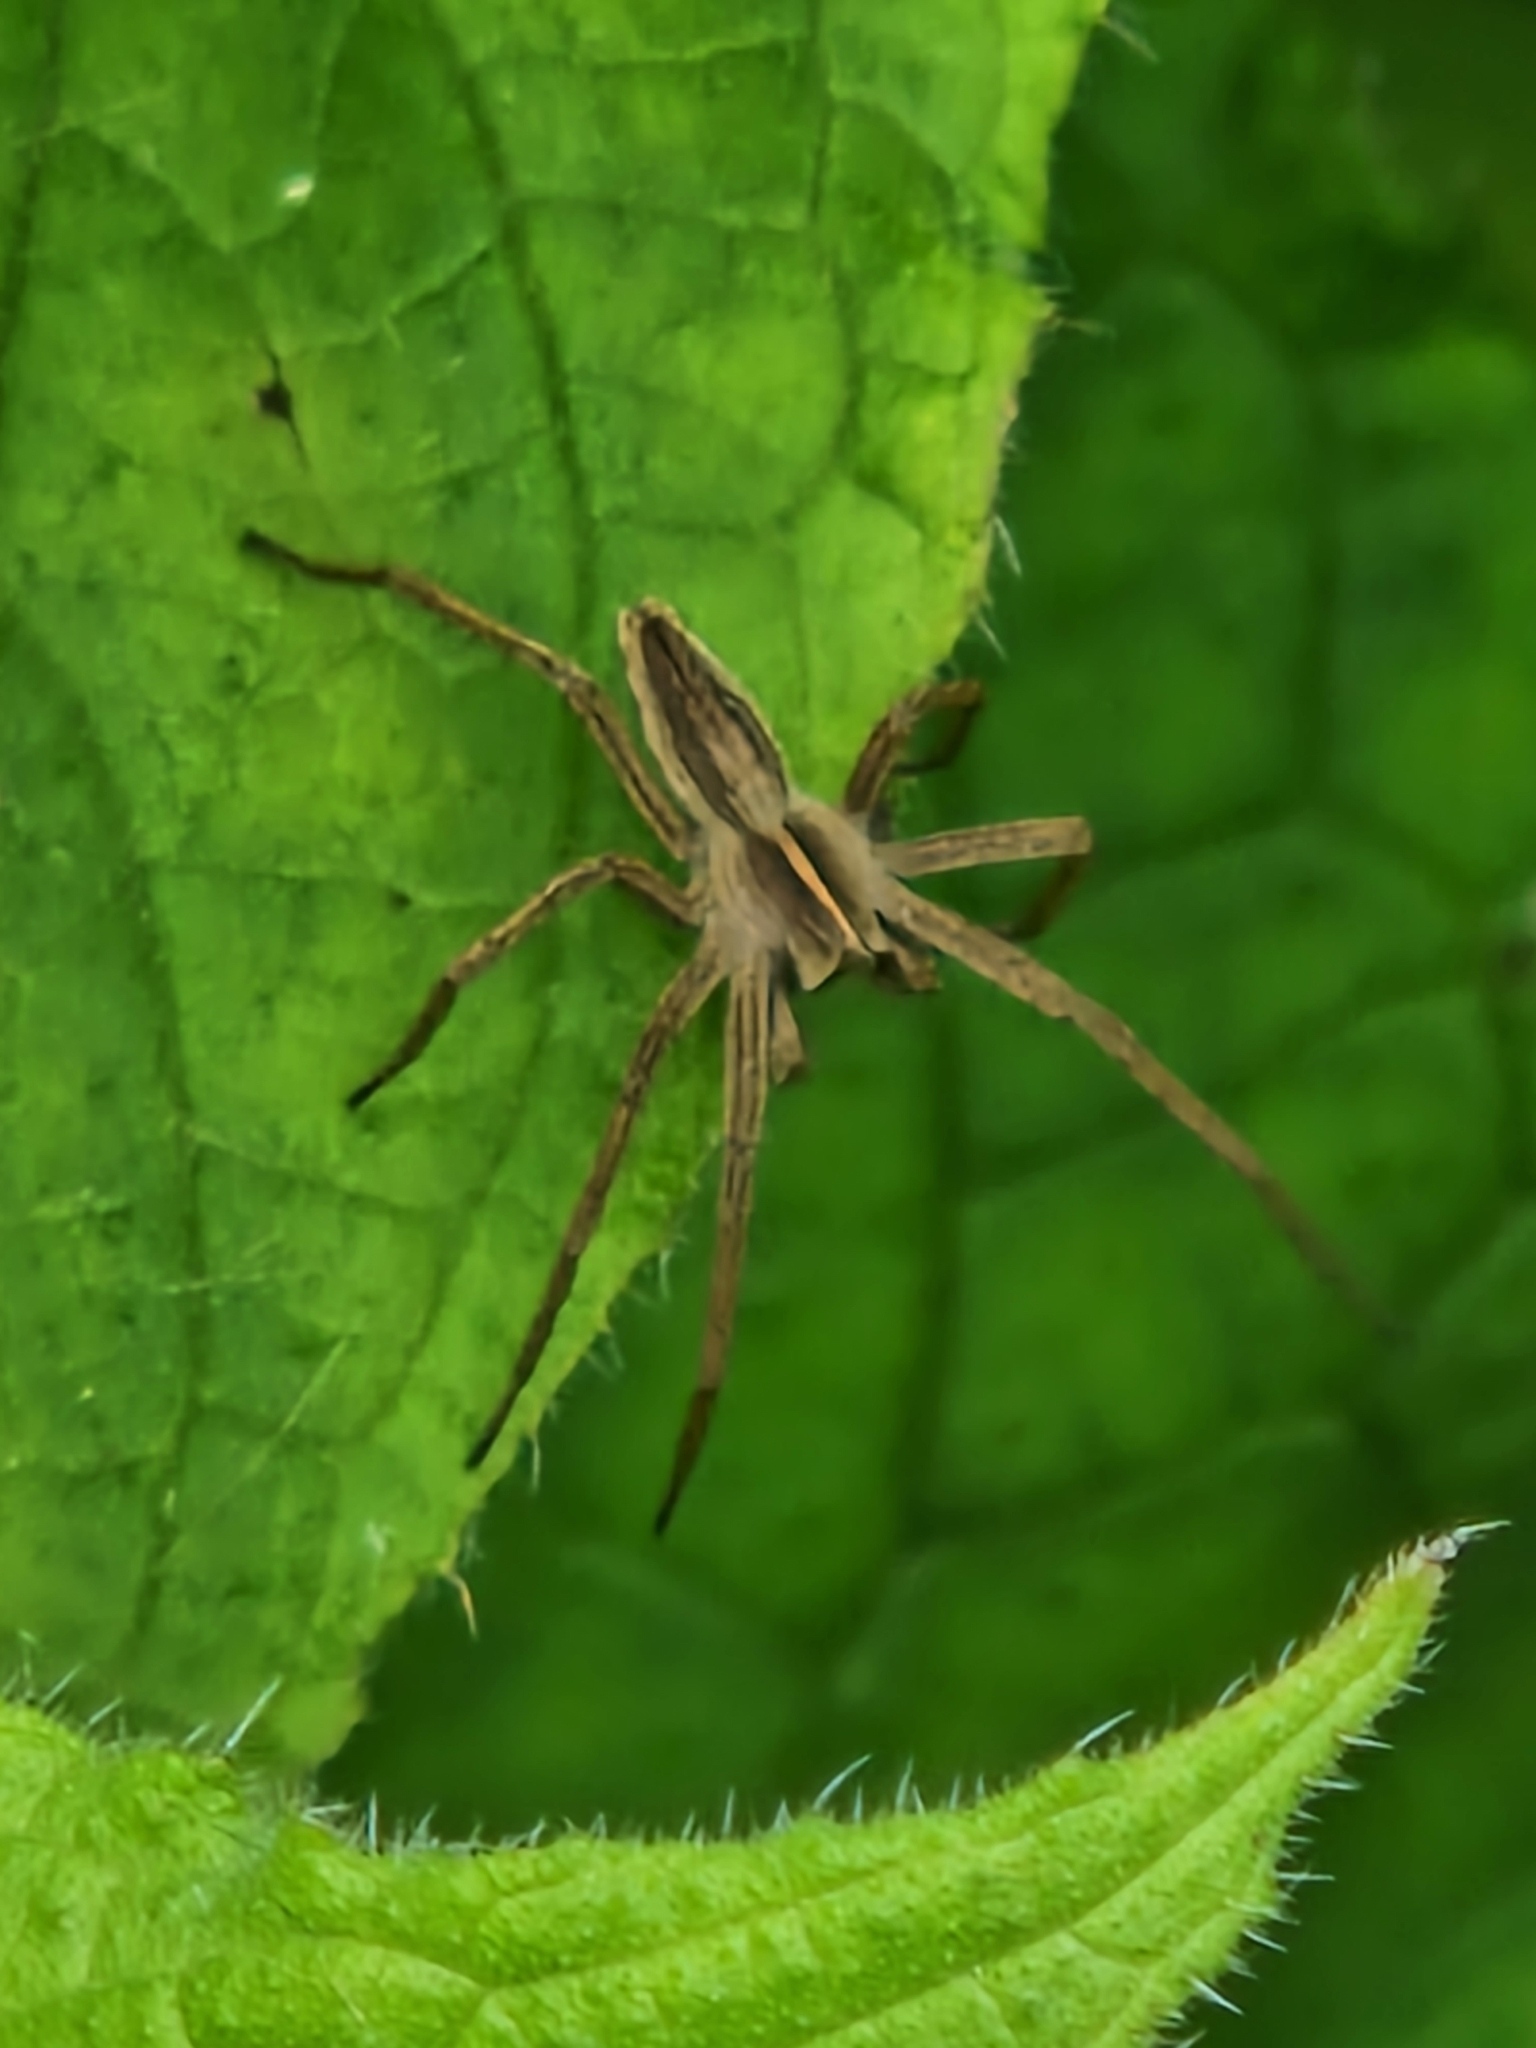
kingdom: Animalia
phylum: Arthropoda
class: Arachnida
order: Araneae
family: Pisauridae
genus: Pisaura
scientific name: Pisaura mirabilis
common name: Tent spider
